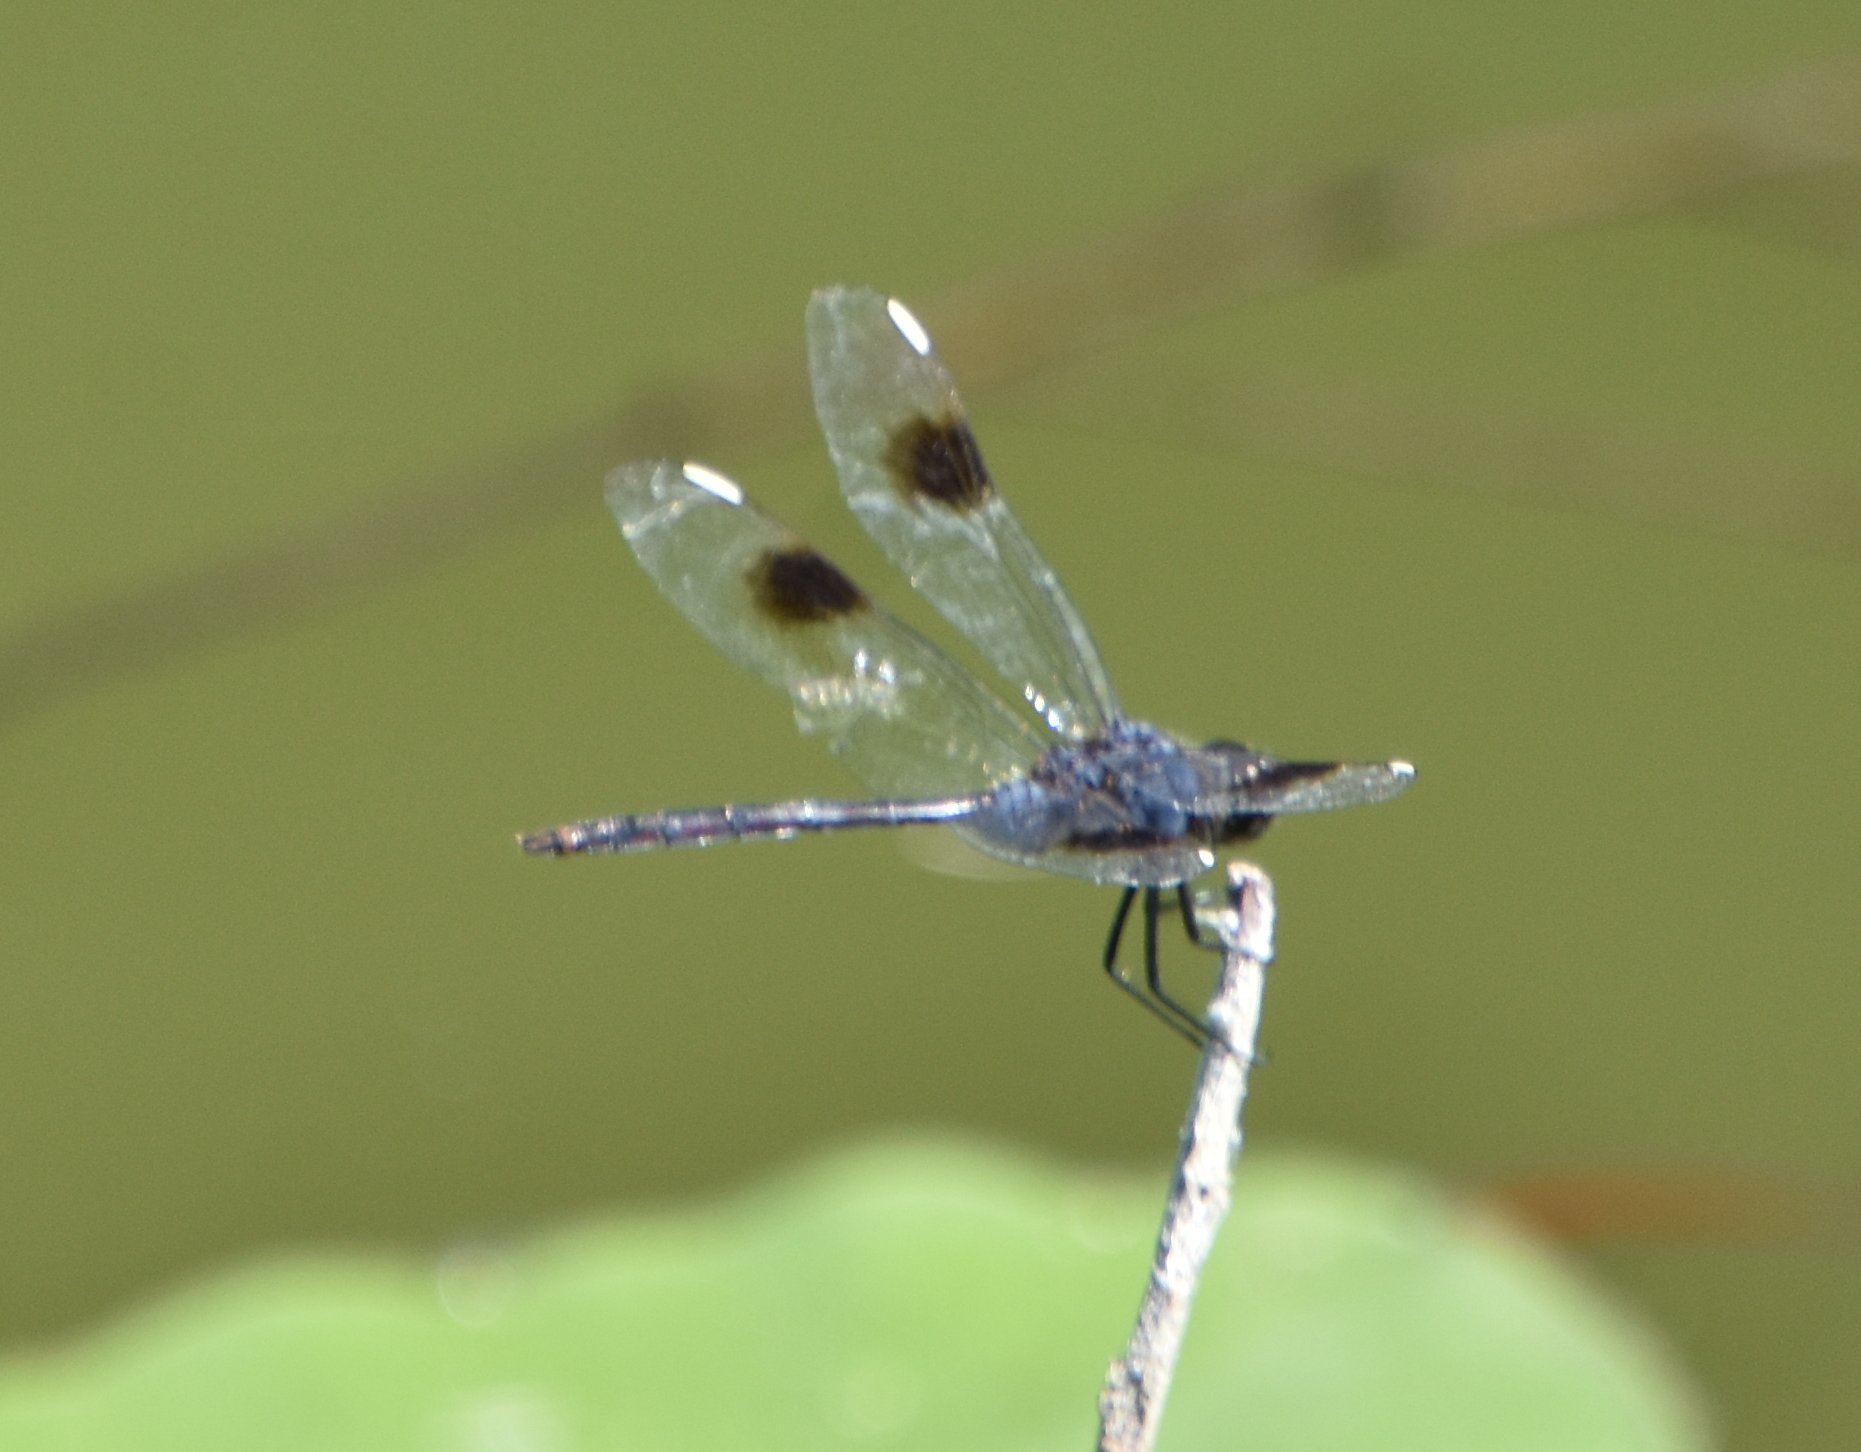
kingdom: Animalia
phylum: Arthropoda
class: Insecta
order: Odonata
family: Libellulidae
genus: Brachymesia
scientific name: Brachymesia gravida
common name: Four-spotted pennant
